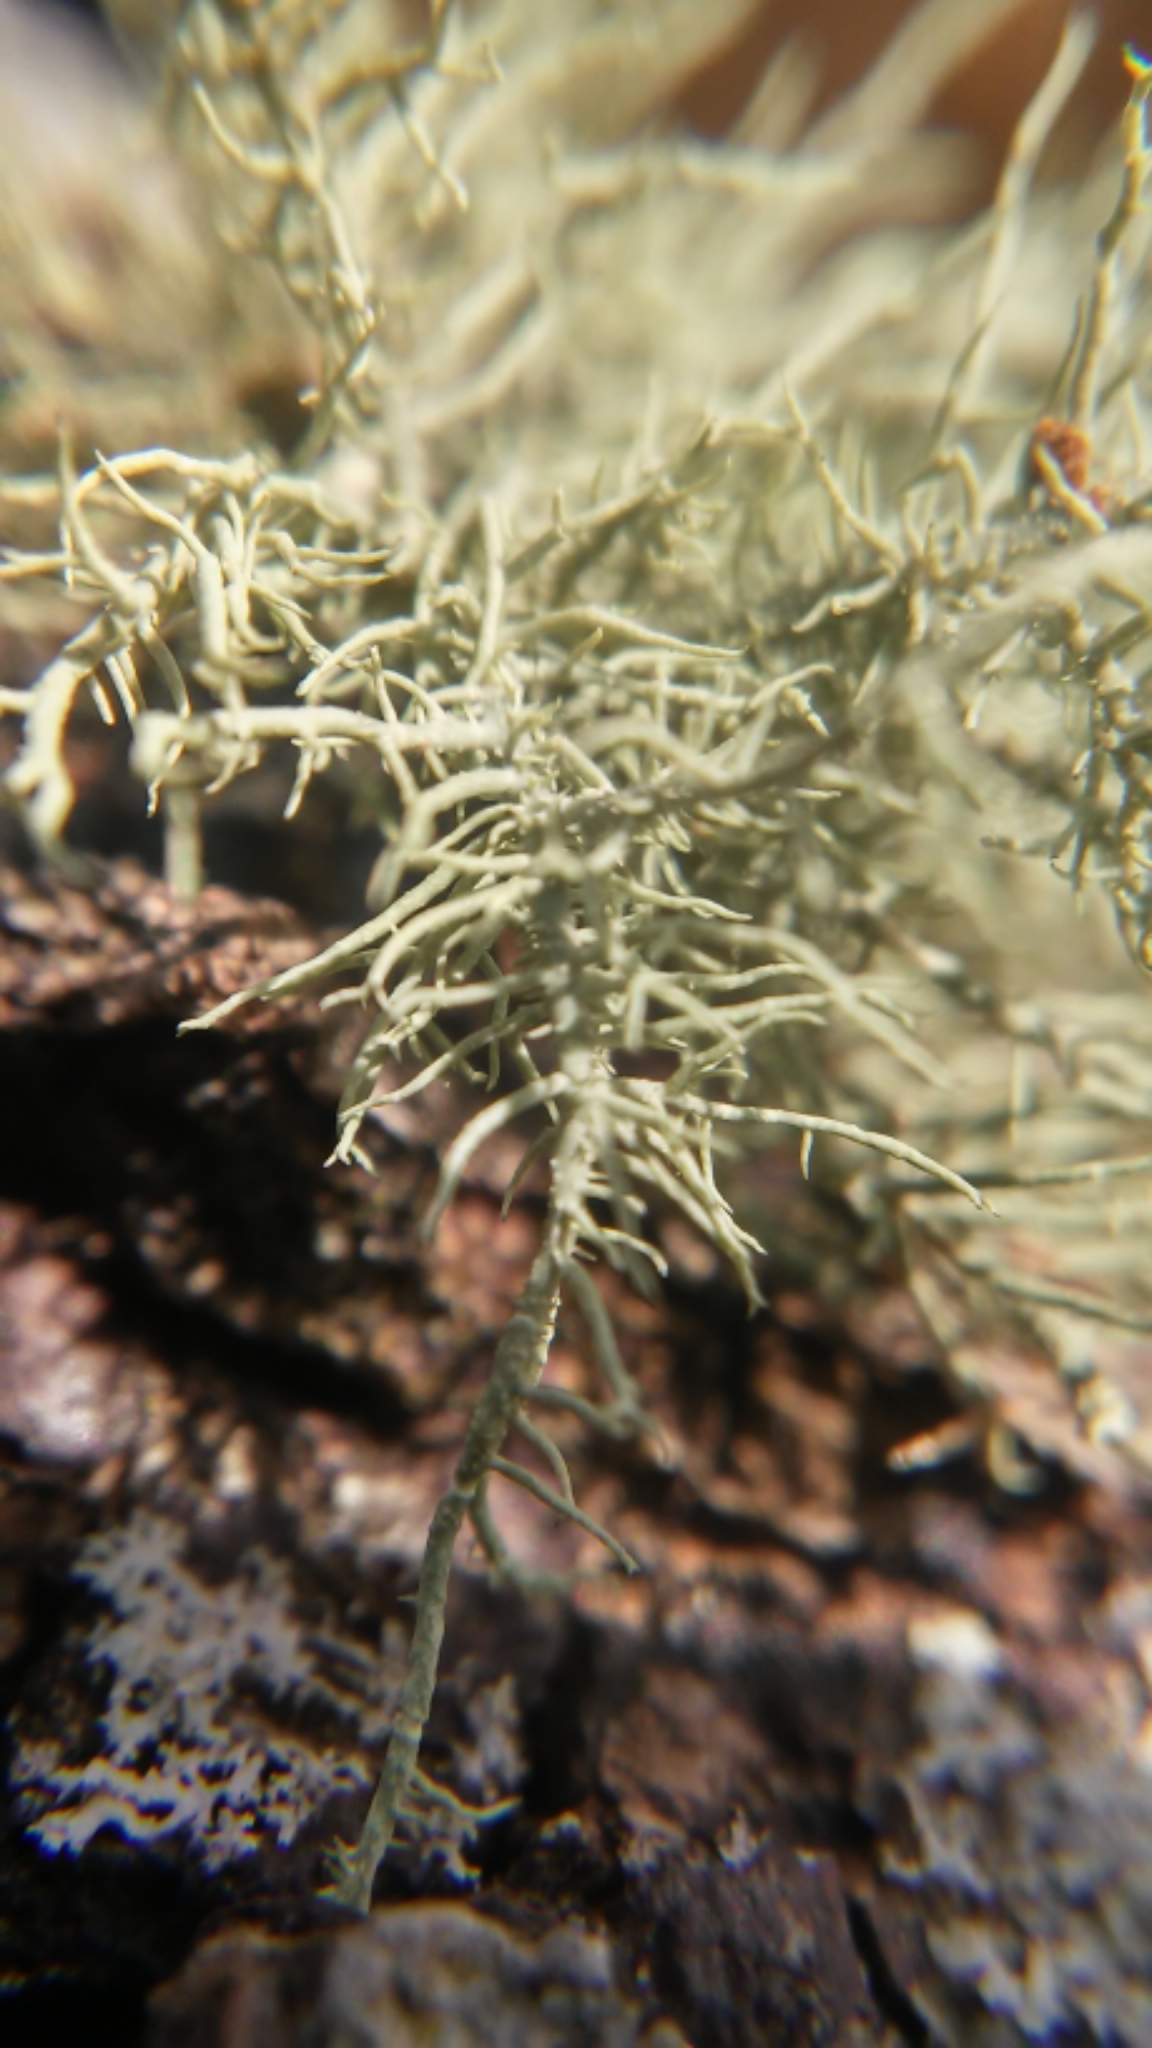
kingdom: Fungi
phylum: Ascomycota
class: Lecanoromycetes
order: Lecanorales
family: Parmeliaceae
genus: Usnea
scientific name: Usnea mutabilis
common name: Bloody beard
